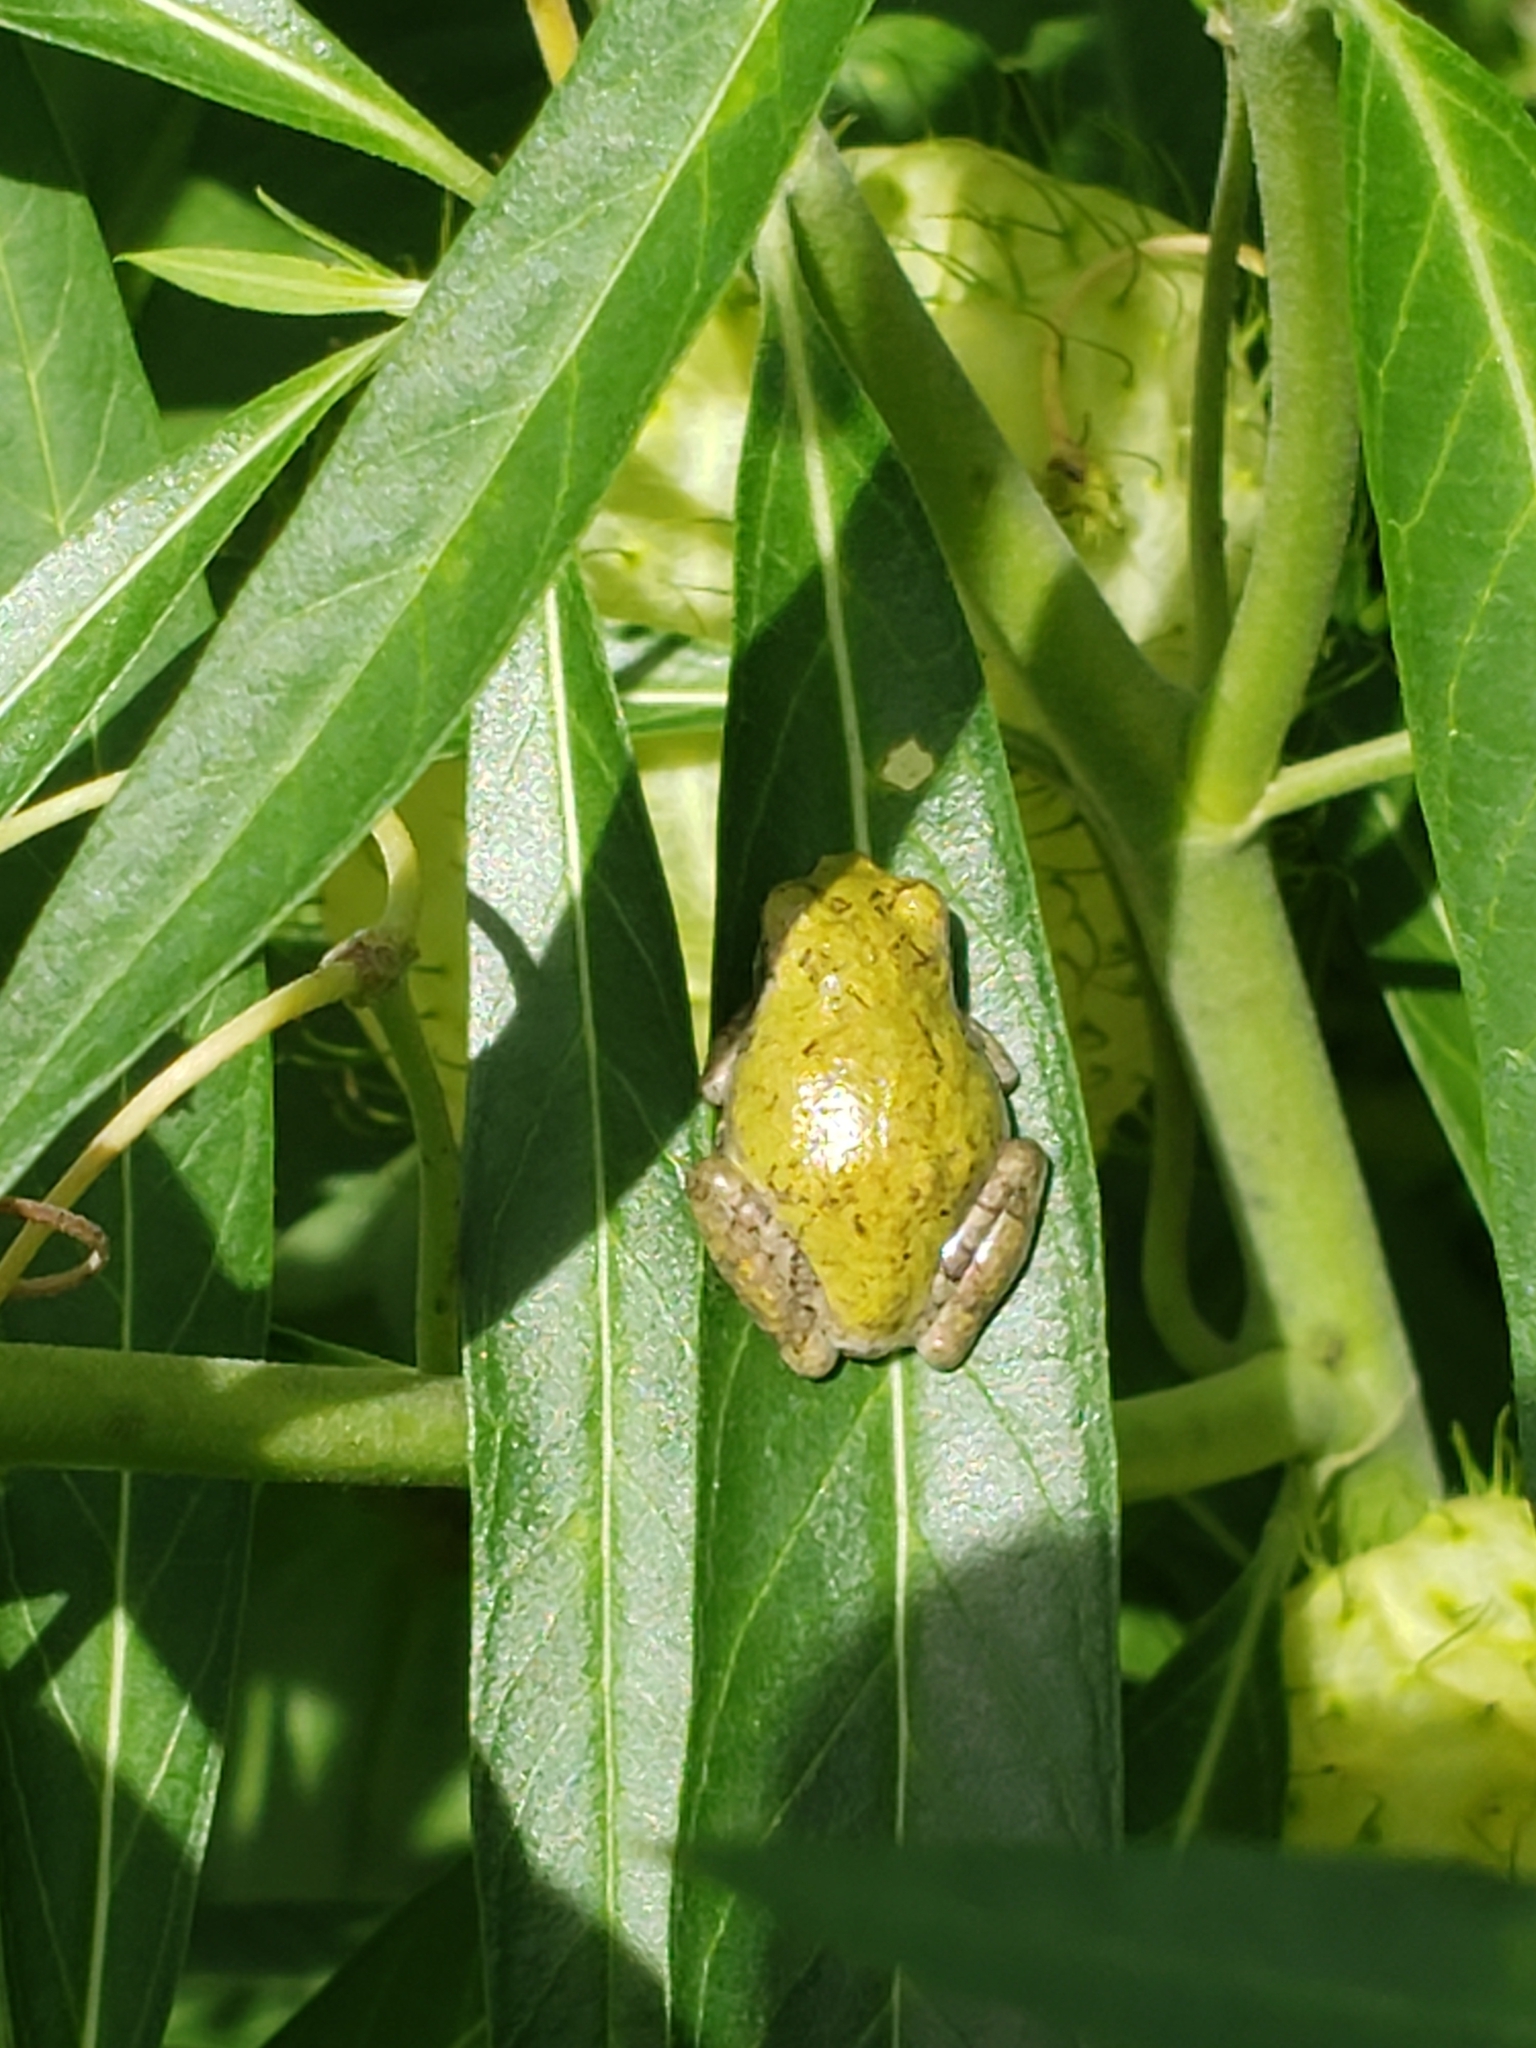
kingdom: Animalia
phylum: Chordata
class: Amphibia
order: Anura
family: Hylidae
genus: Hyla
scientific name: Hyla
